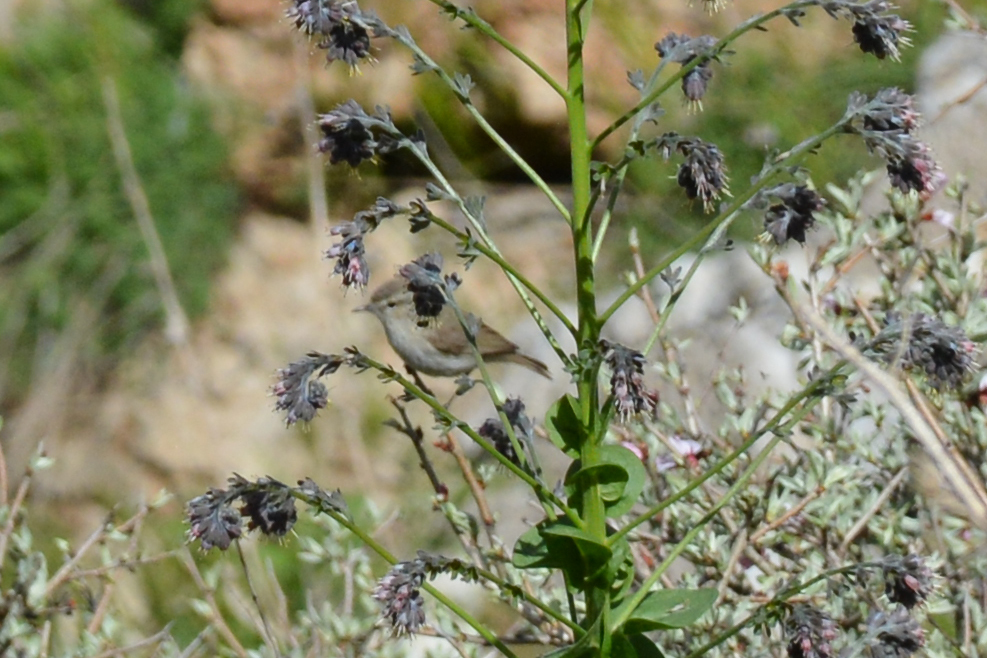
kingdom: Animalia
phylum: Chordata
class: Aves
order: Passeriformes
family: Phylloscopidae
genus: Phylloscopus
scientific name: Phylloscopus neglectus
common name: Plain leaf warbler
